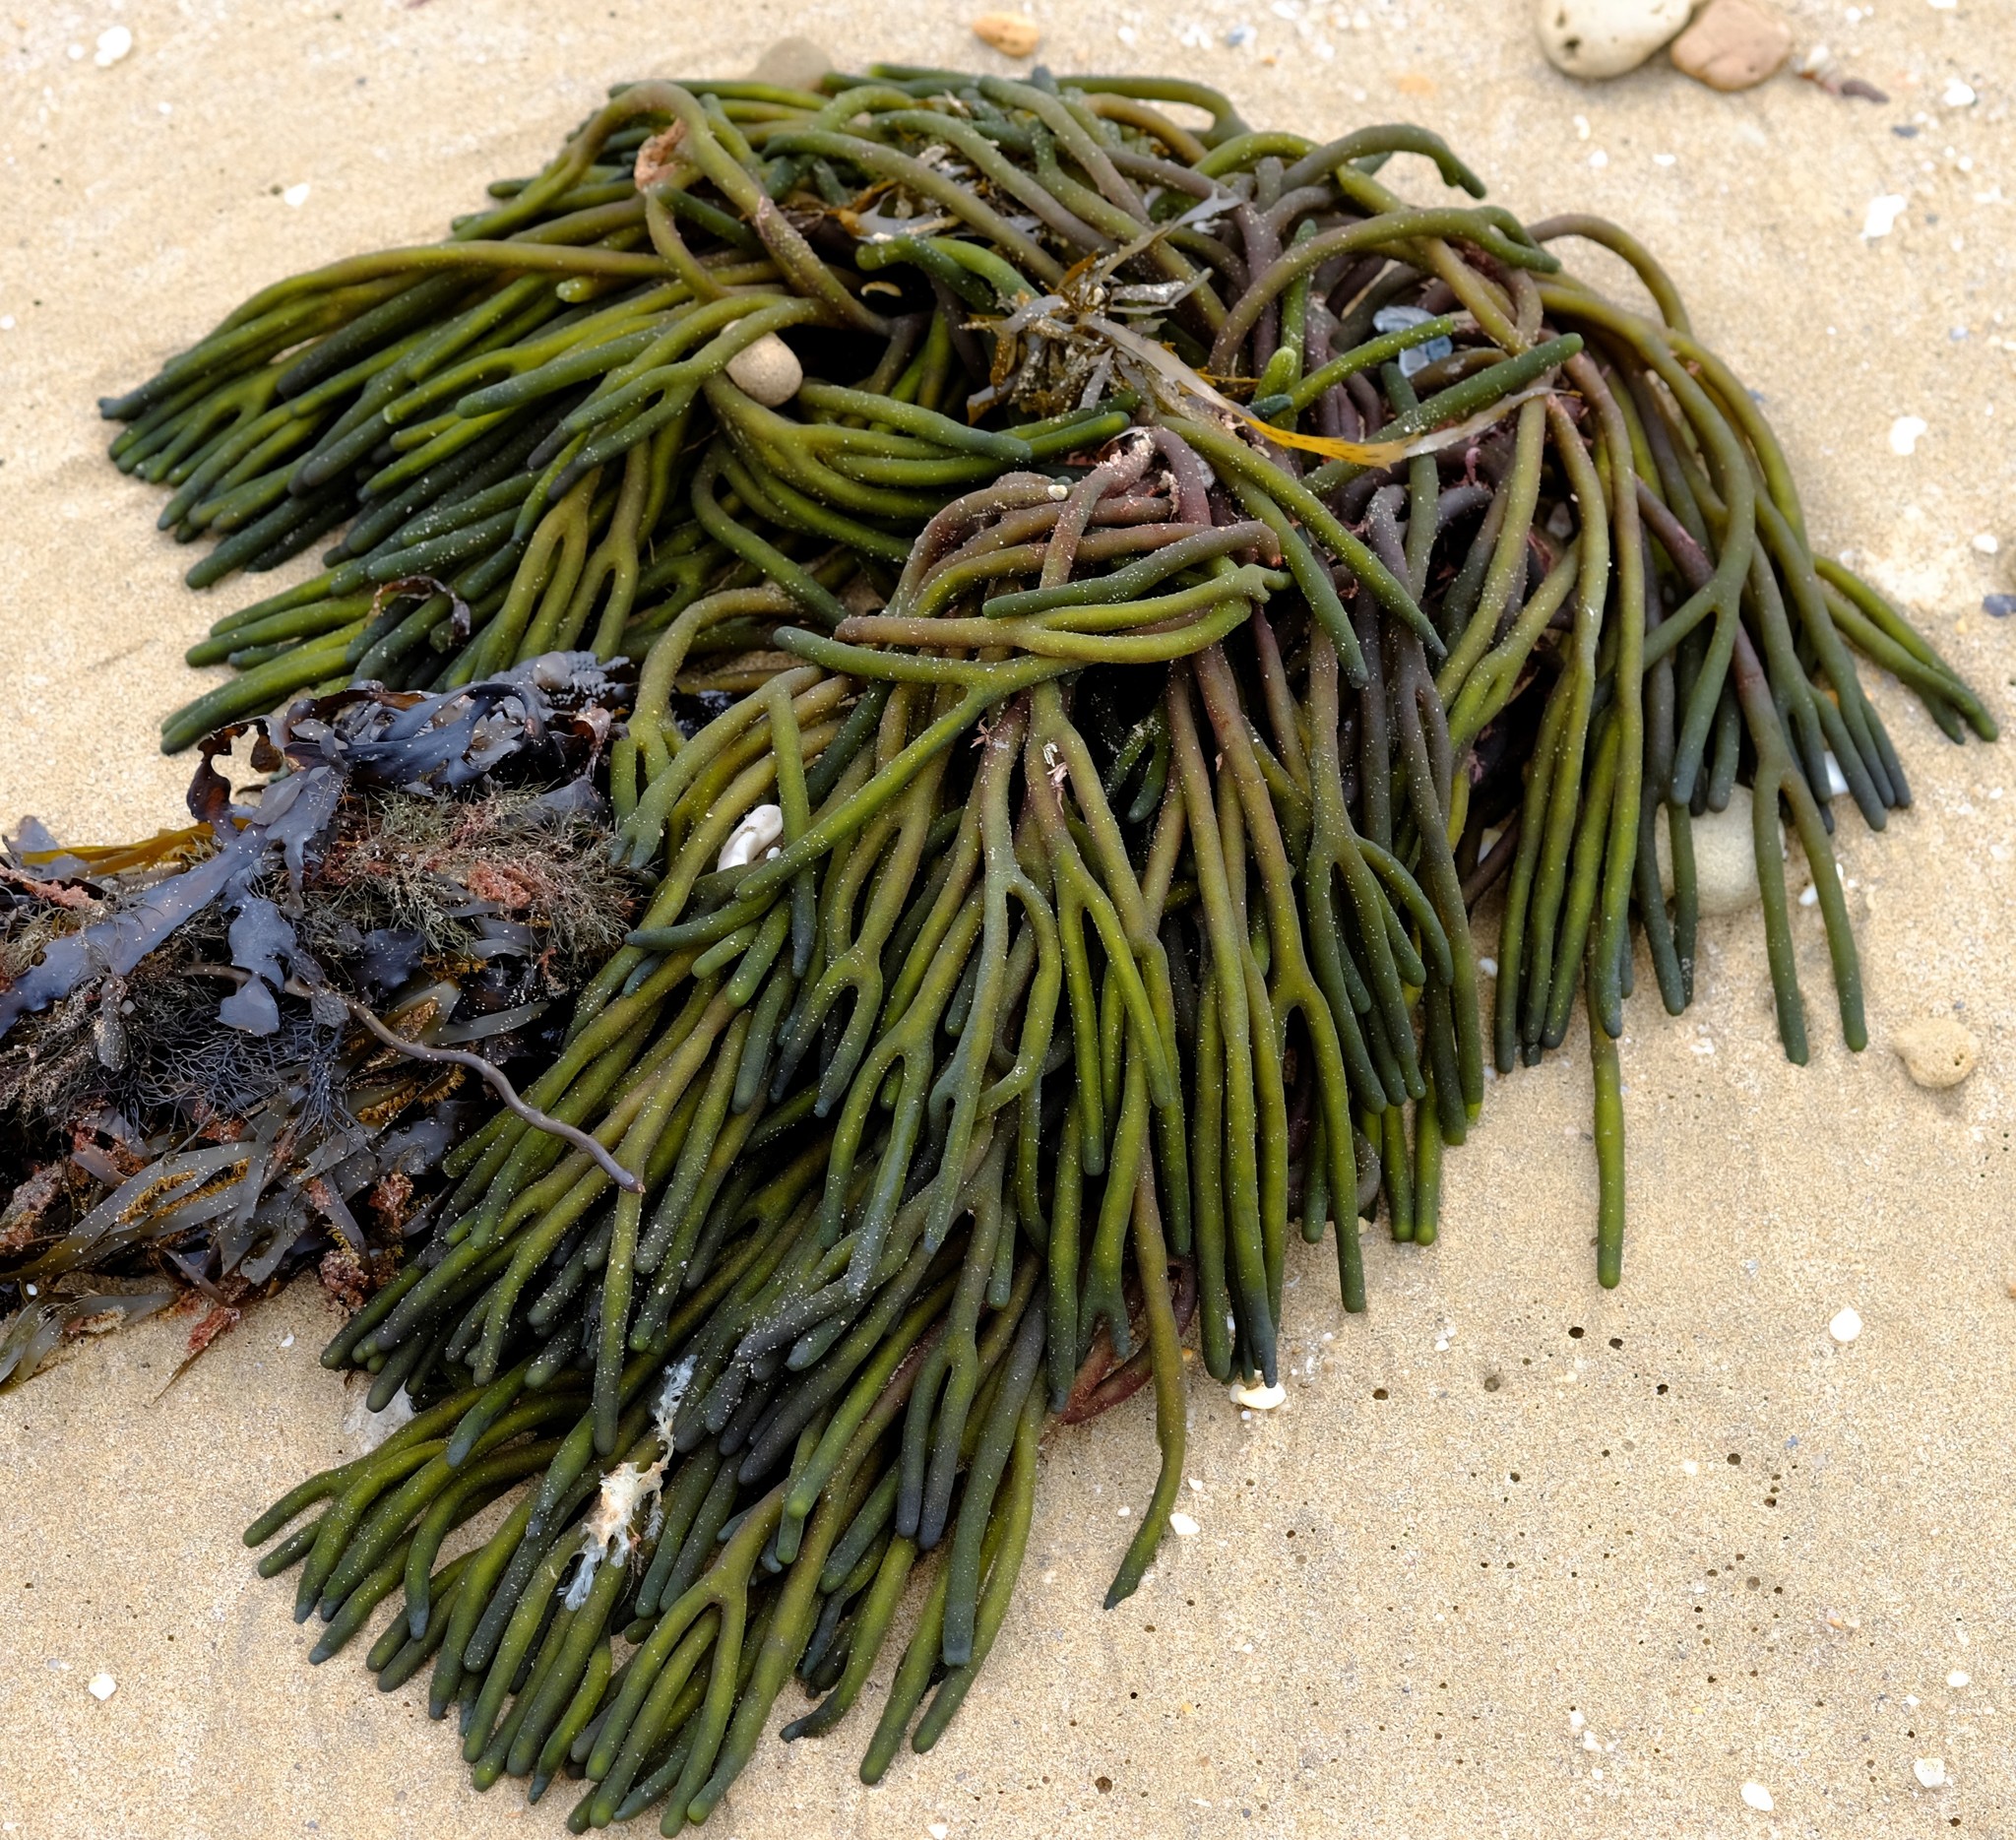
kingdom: Plantae
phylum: Chlorophyta
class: Ulvophyceae
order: Bryopsidales
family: Codiaceae
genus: Codium
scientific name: Codium galeatum
